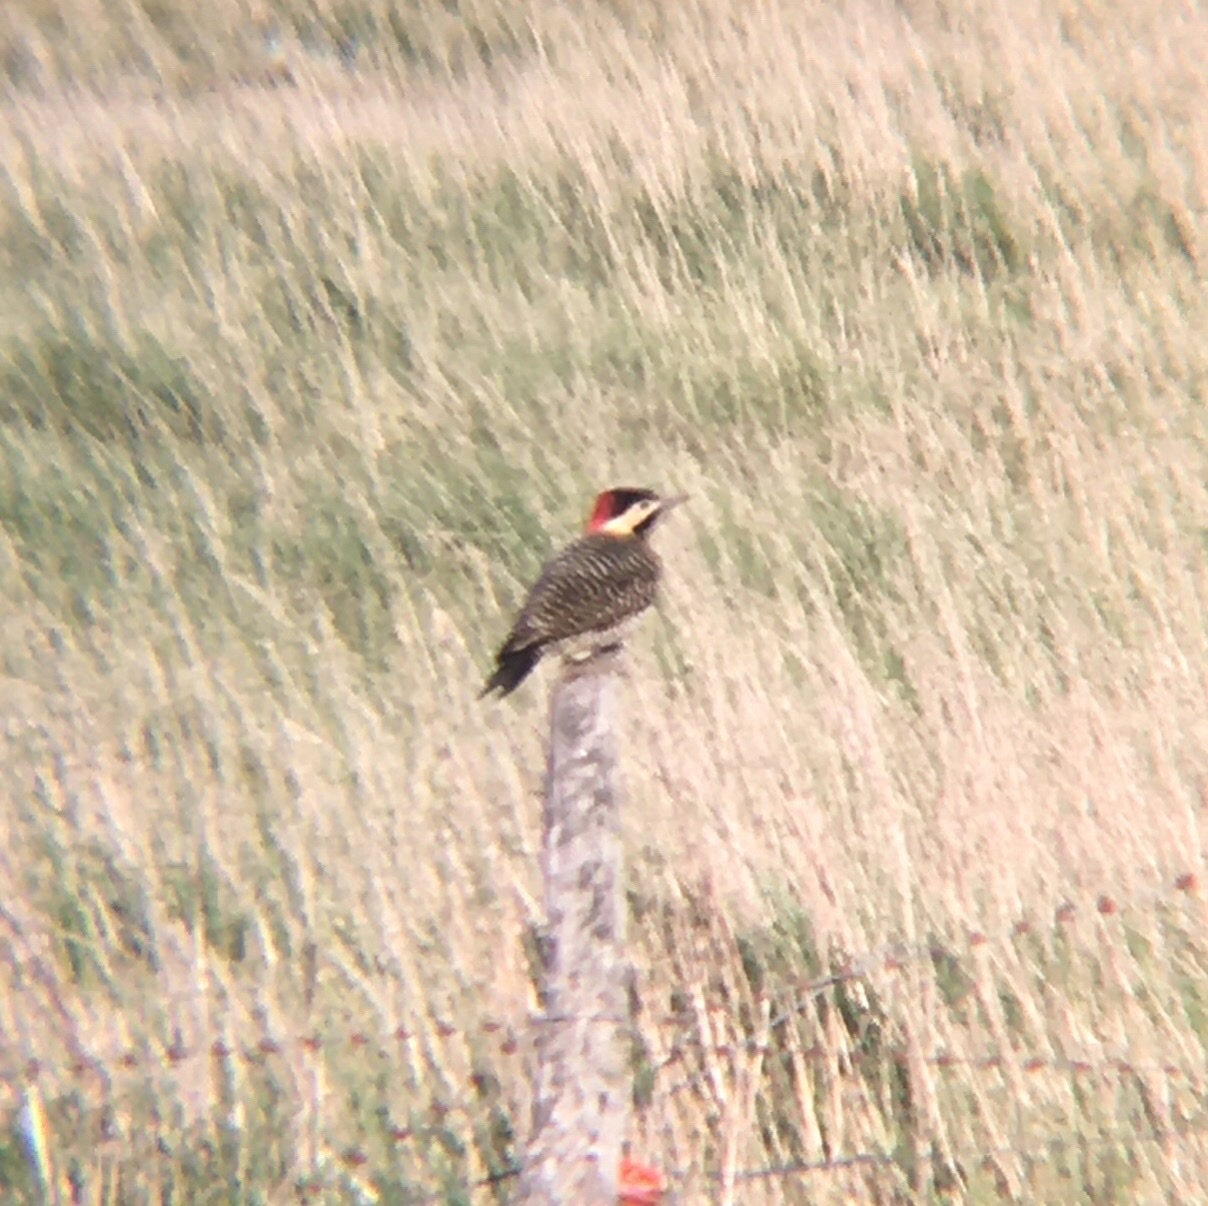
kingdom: Animalia
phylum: Chordata
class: Aves
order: Piciformes
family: Picidae
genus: Colaptes
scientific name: Colaptes melanochloros
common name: Green-barred woodpecker
